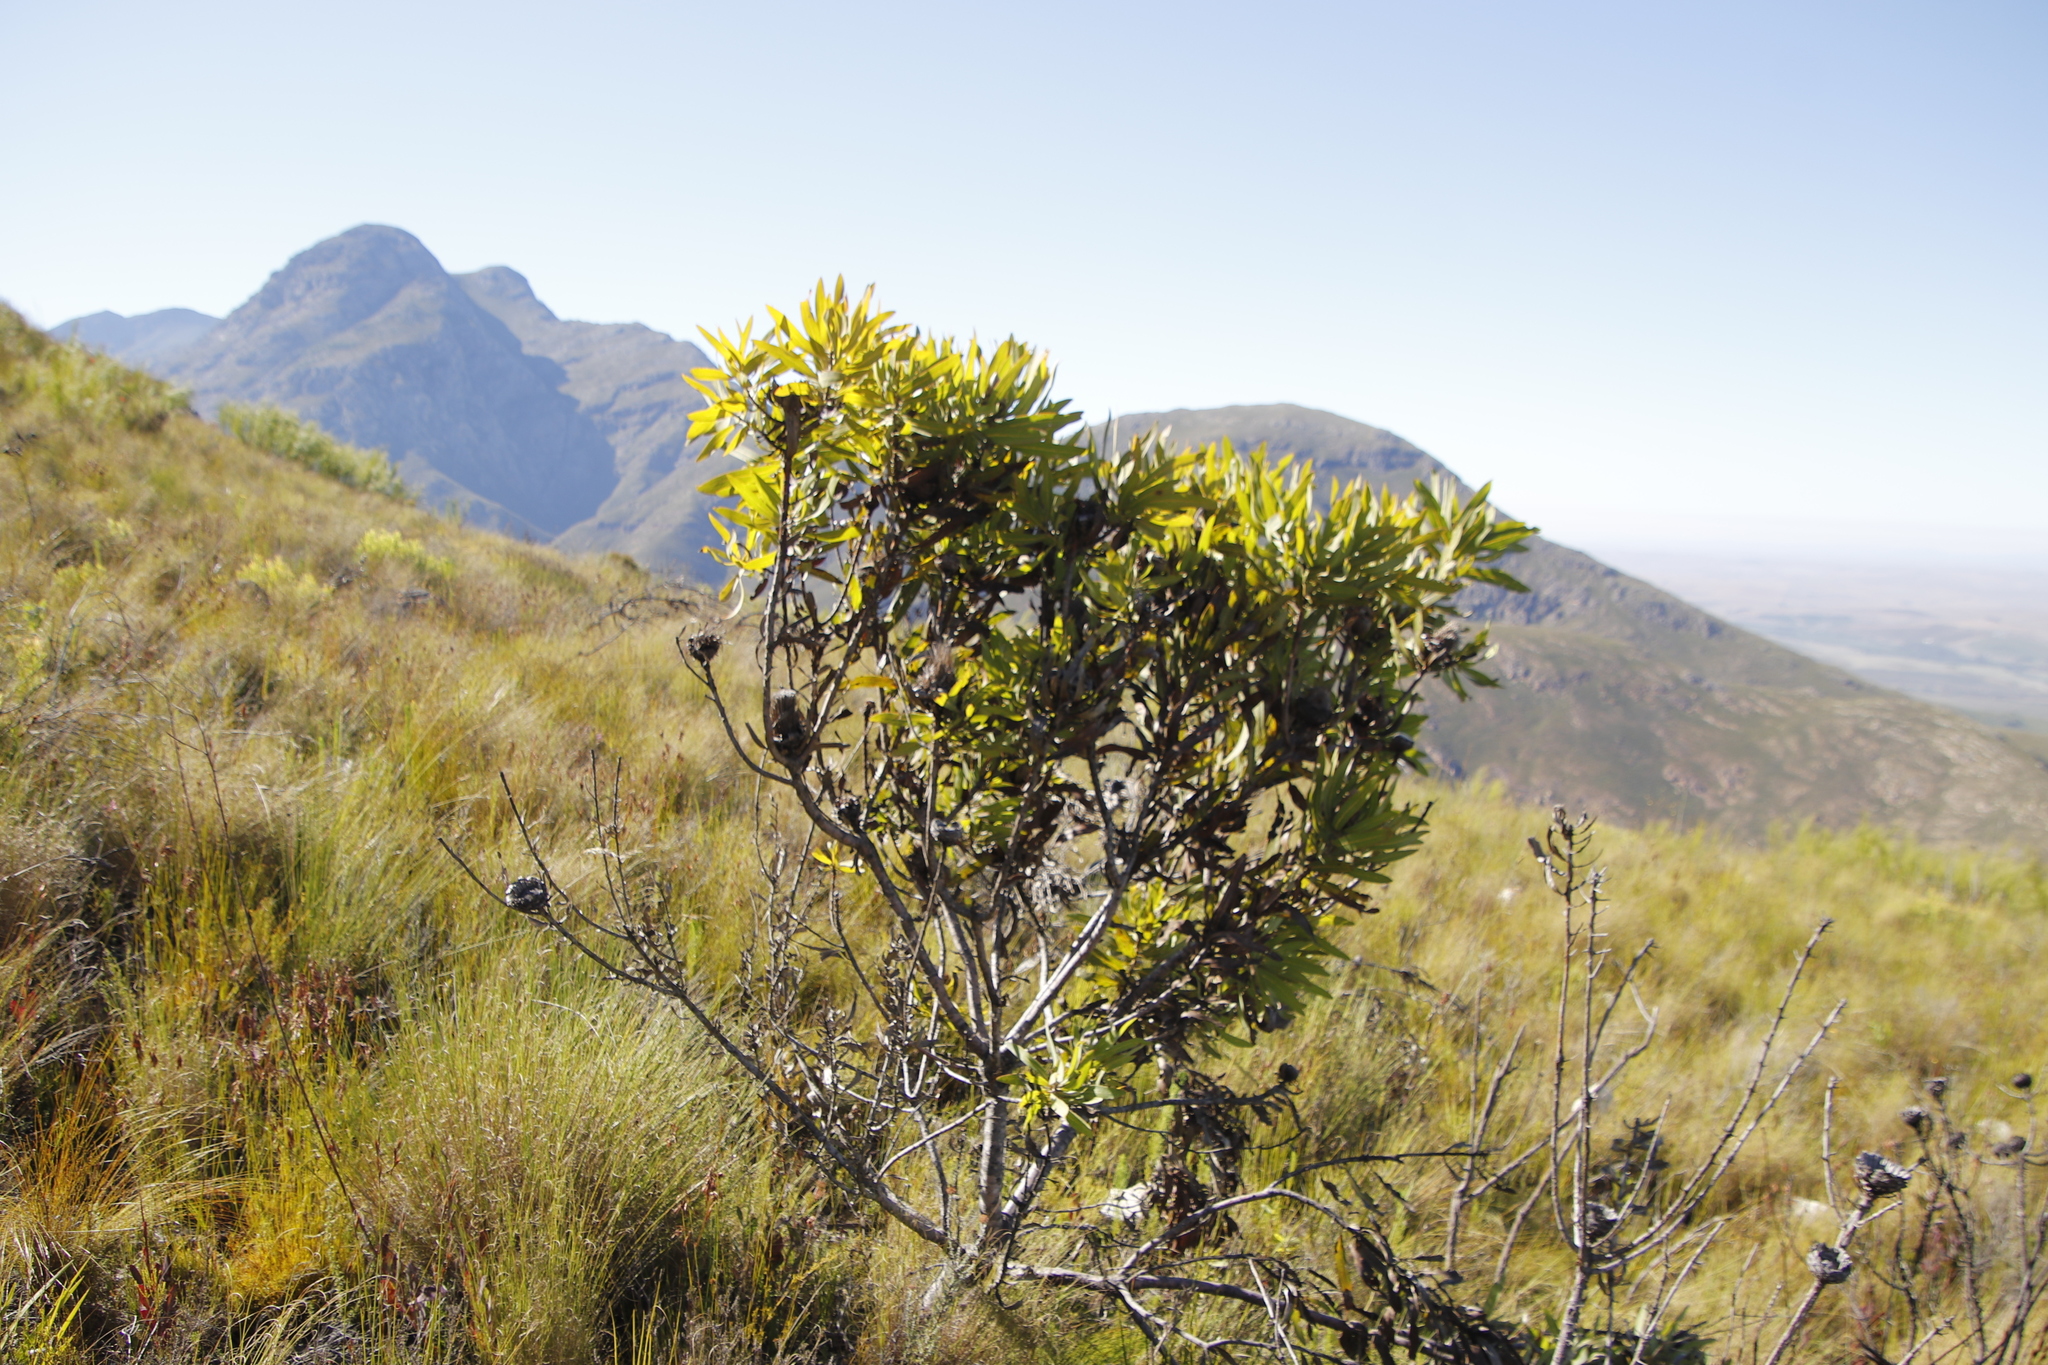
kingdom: Plantae
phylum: Tracheophyta
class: Magnoliopsida
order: Proteales
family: Proteaceae
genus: Protea
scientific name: Protea neriifolia
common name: Blue sugarbush
